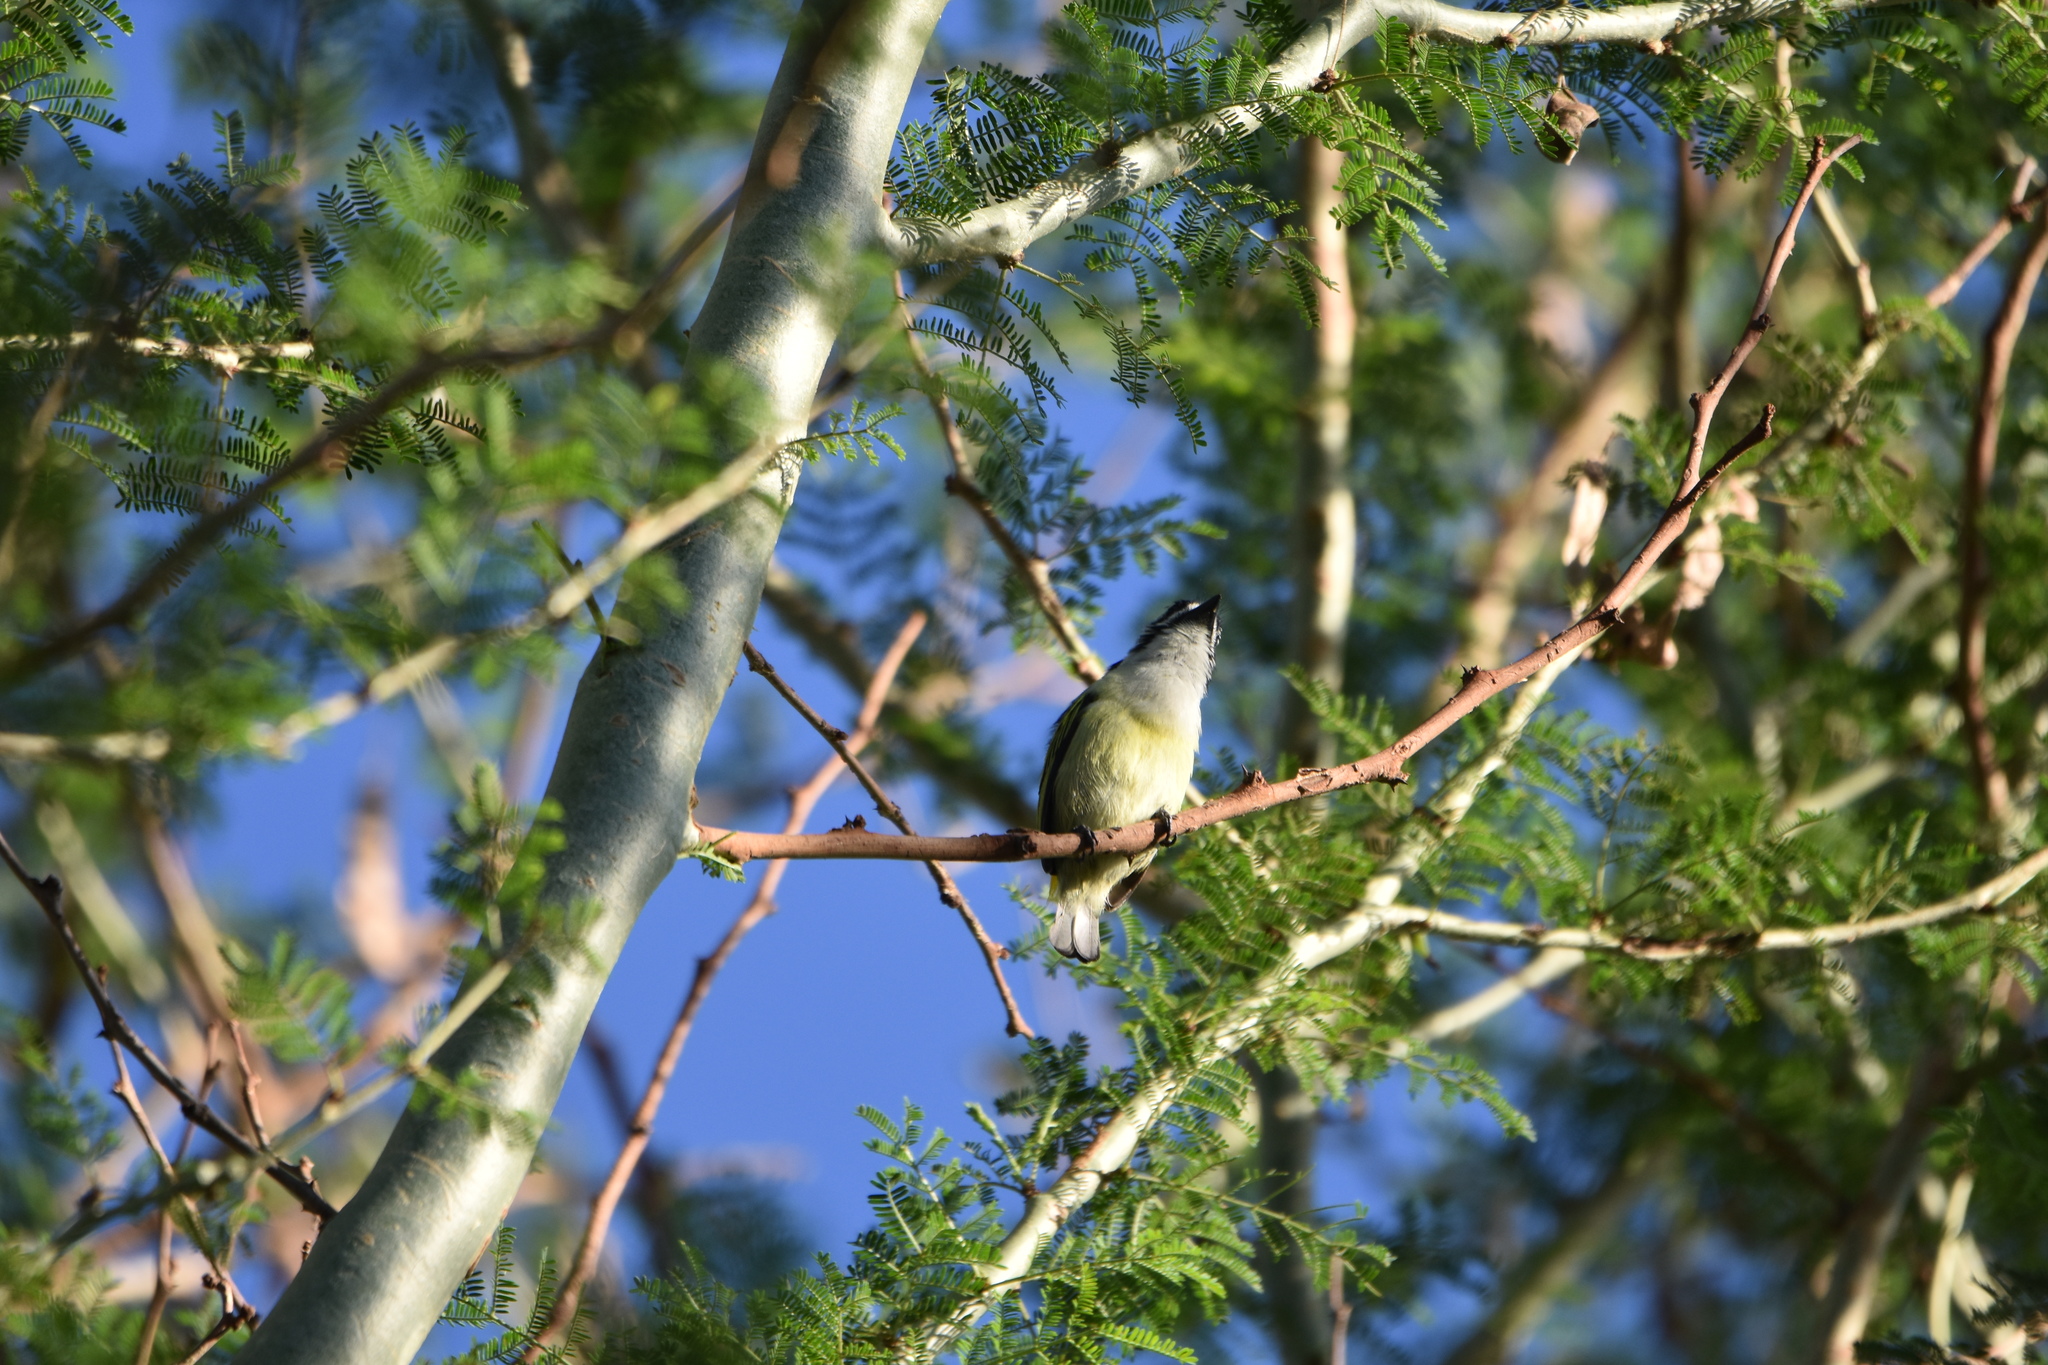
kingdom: Animalia
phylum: Chordata
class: Aves
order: Piciformes
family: Lybiidae
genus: Pogoniulus
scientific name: Pogoniulus bilineatus
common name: Yellow-rumped tinkerbird
